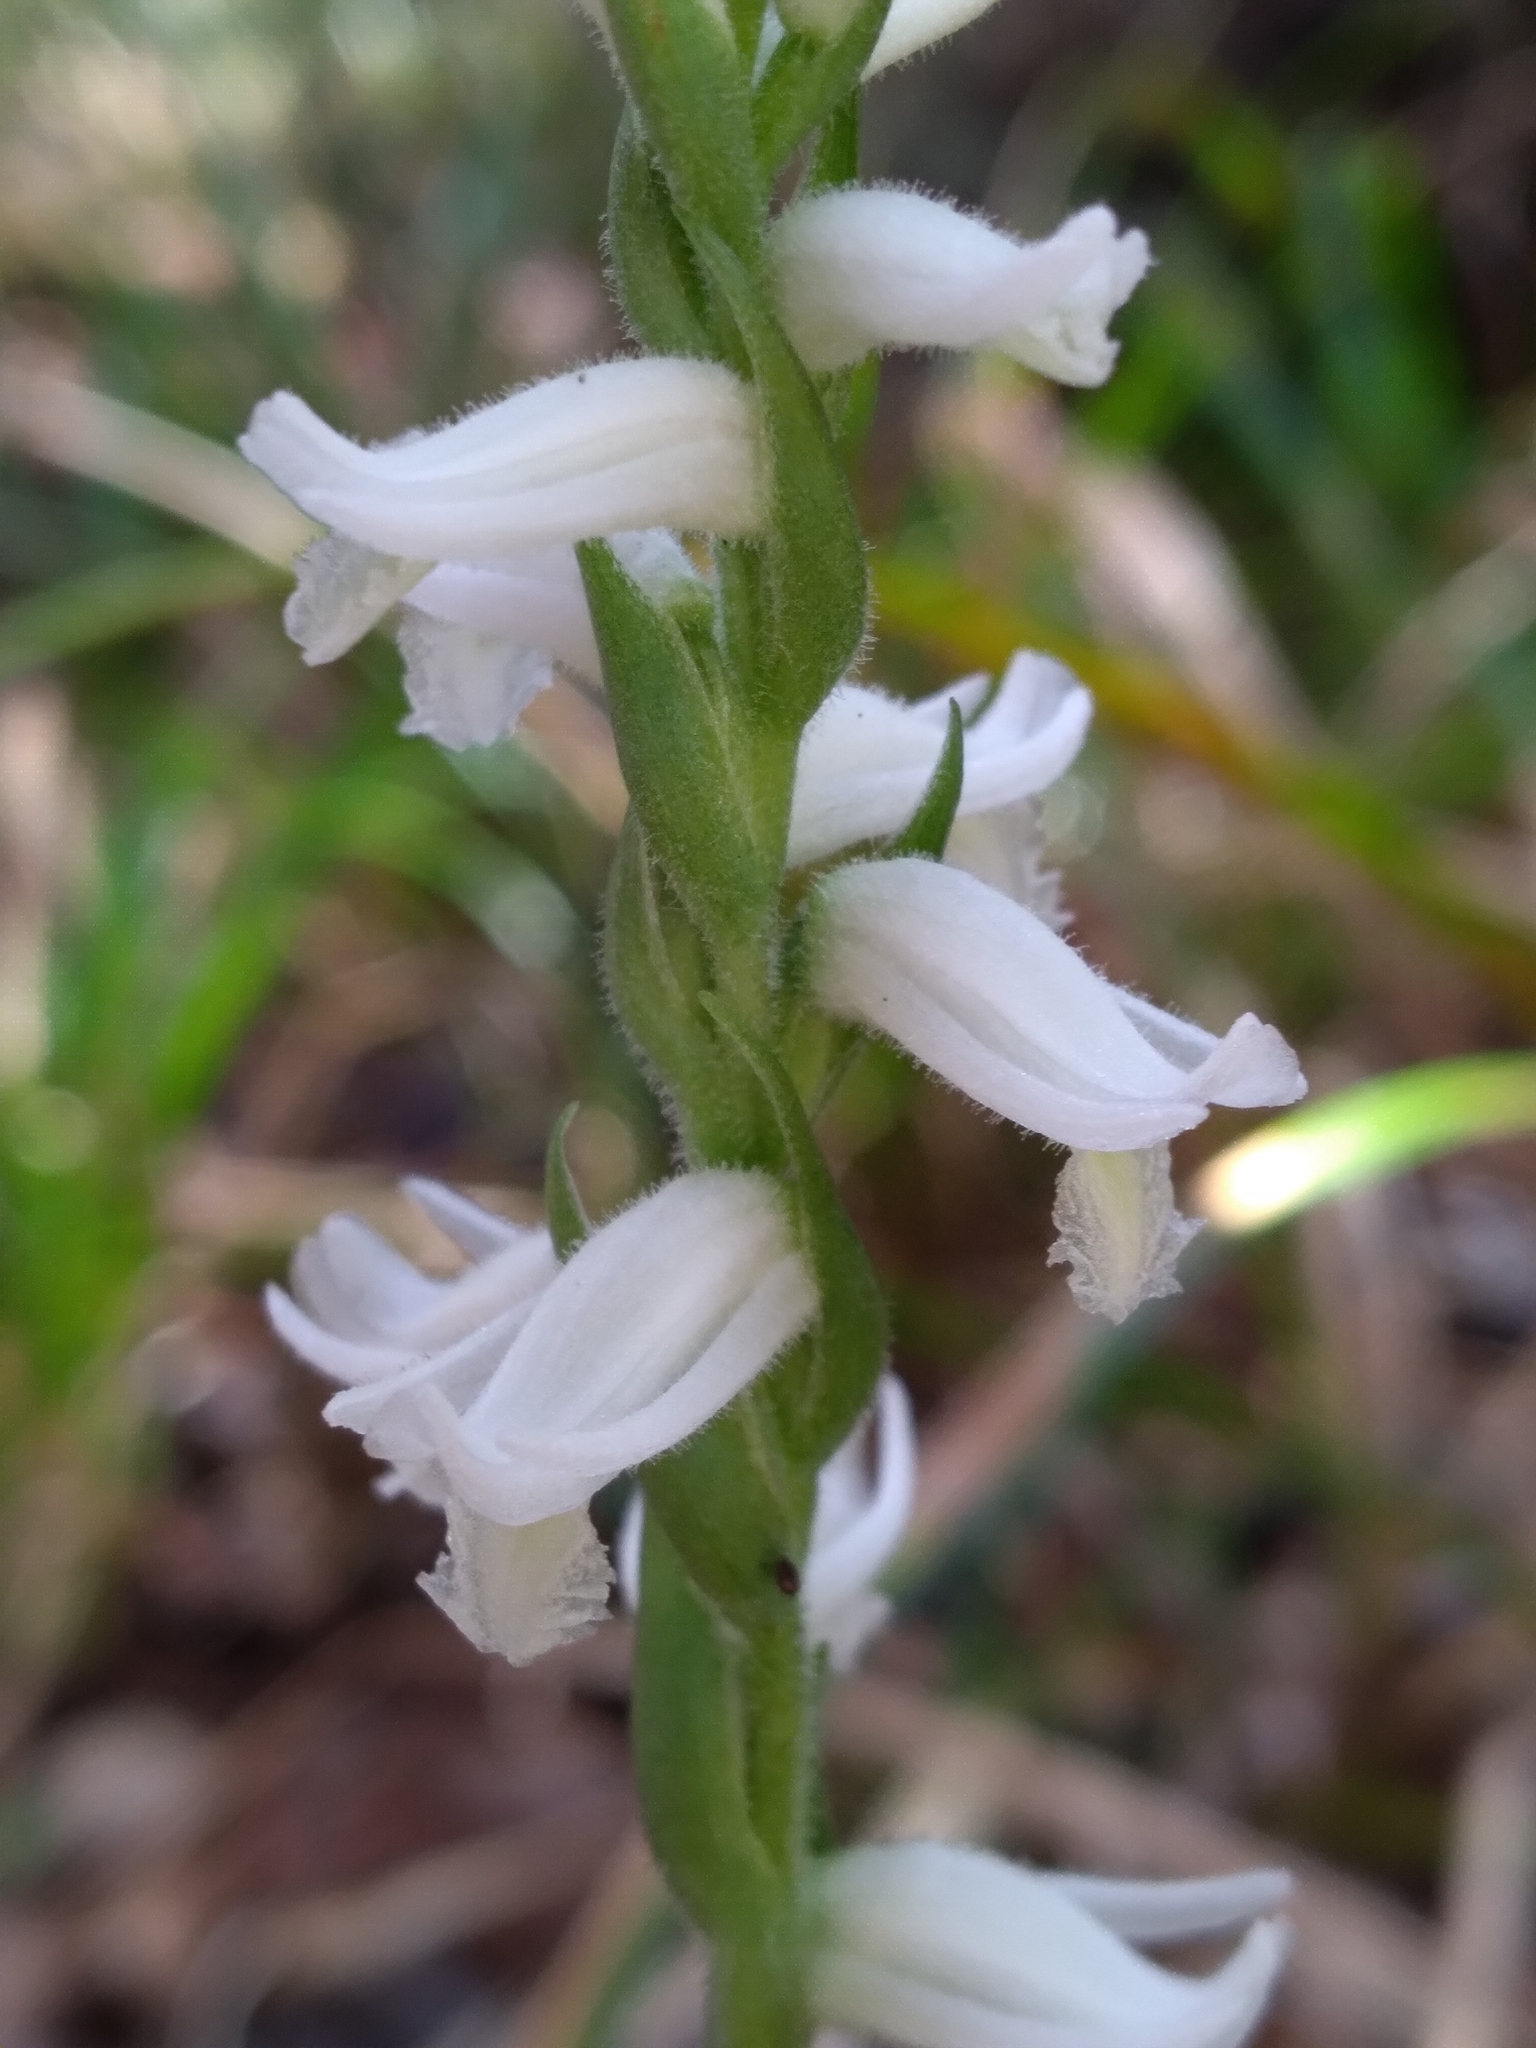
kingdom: Plantae
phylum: Tracheophyta
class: Liliopsida
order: Asparagales
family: Orchidaceae
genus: Spiranthes
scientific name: Spiranthes triloba
